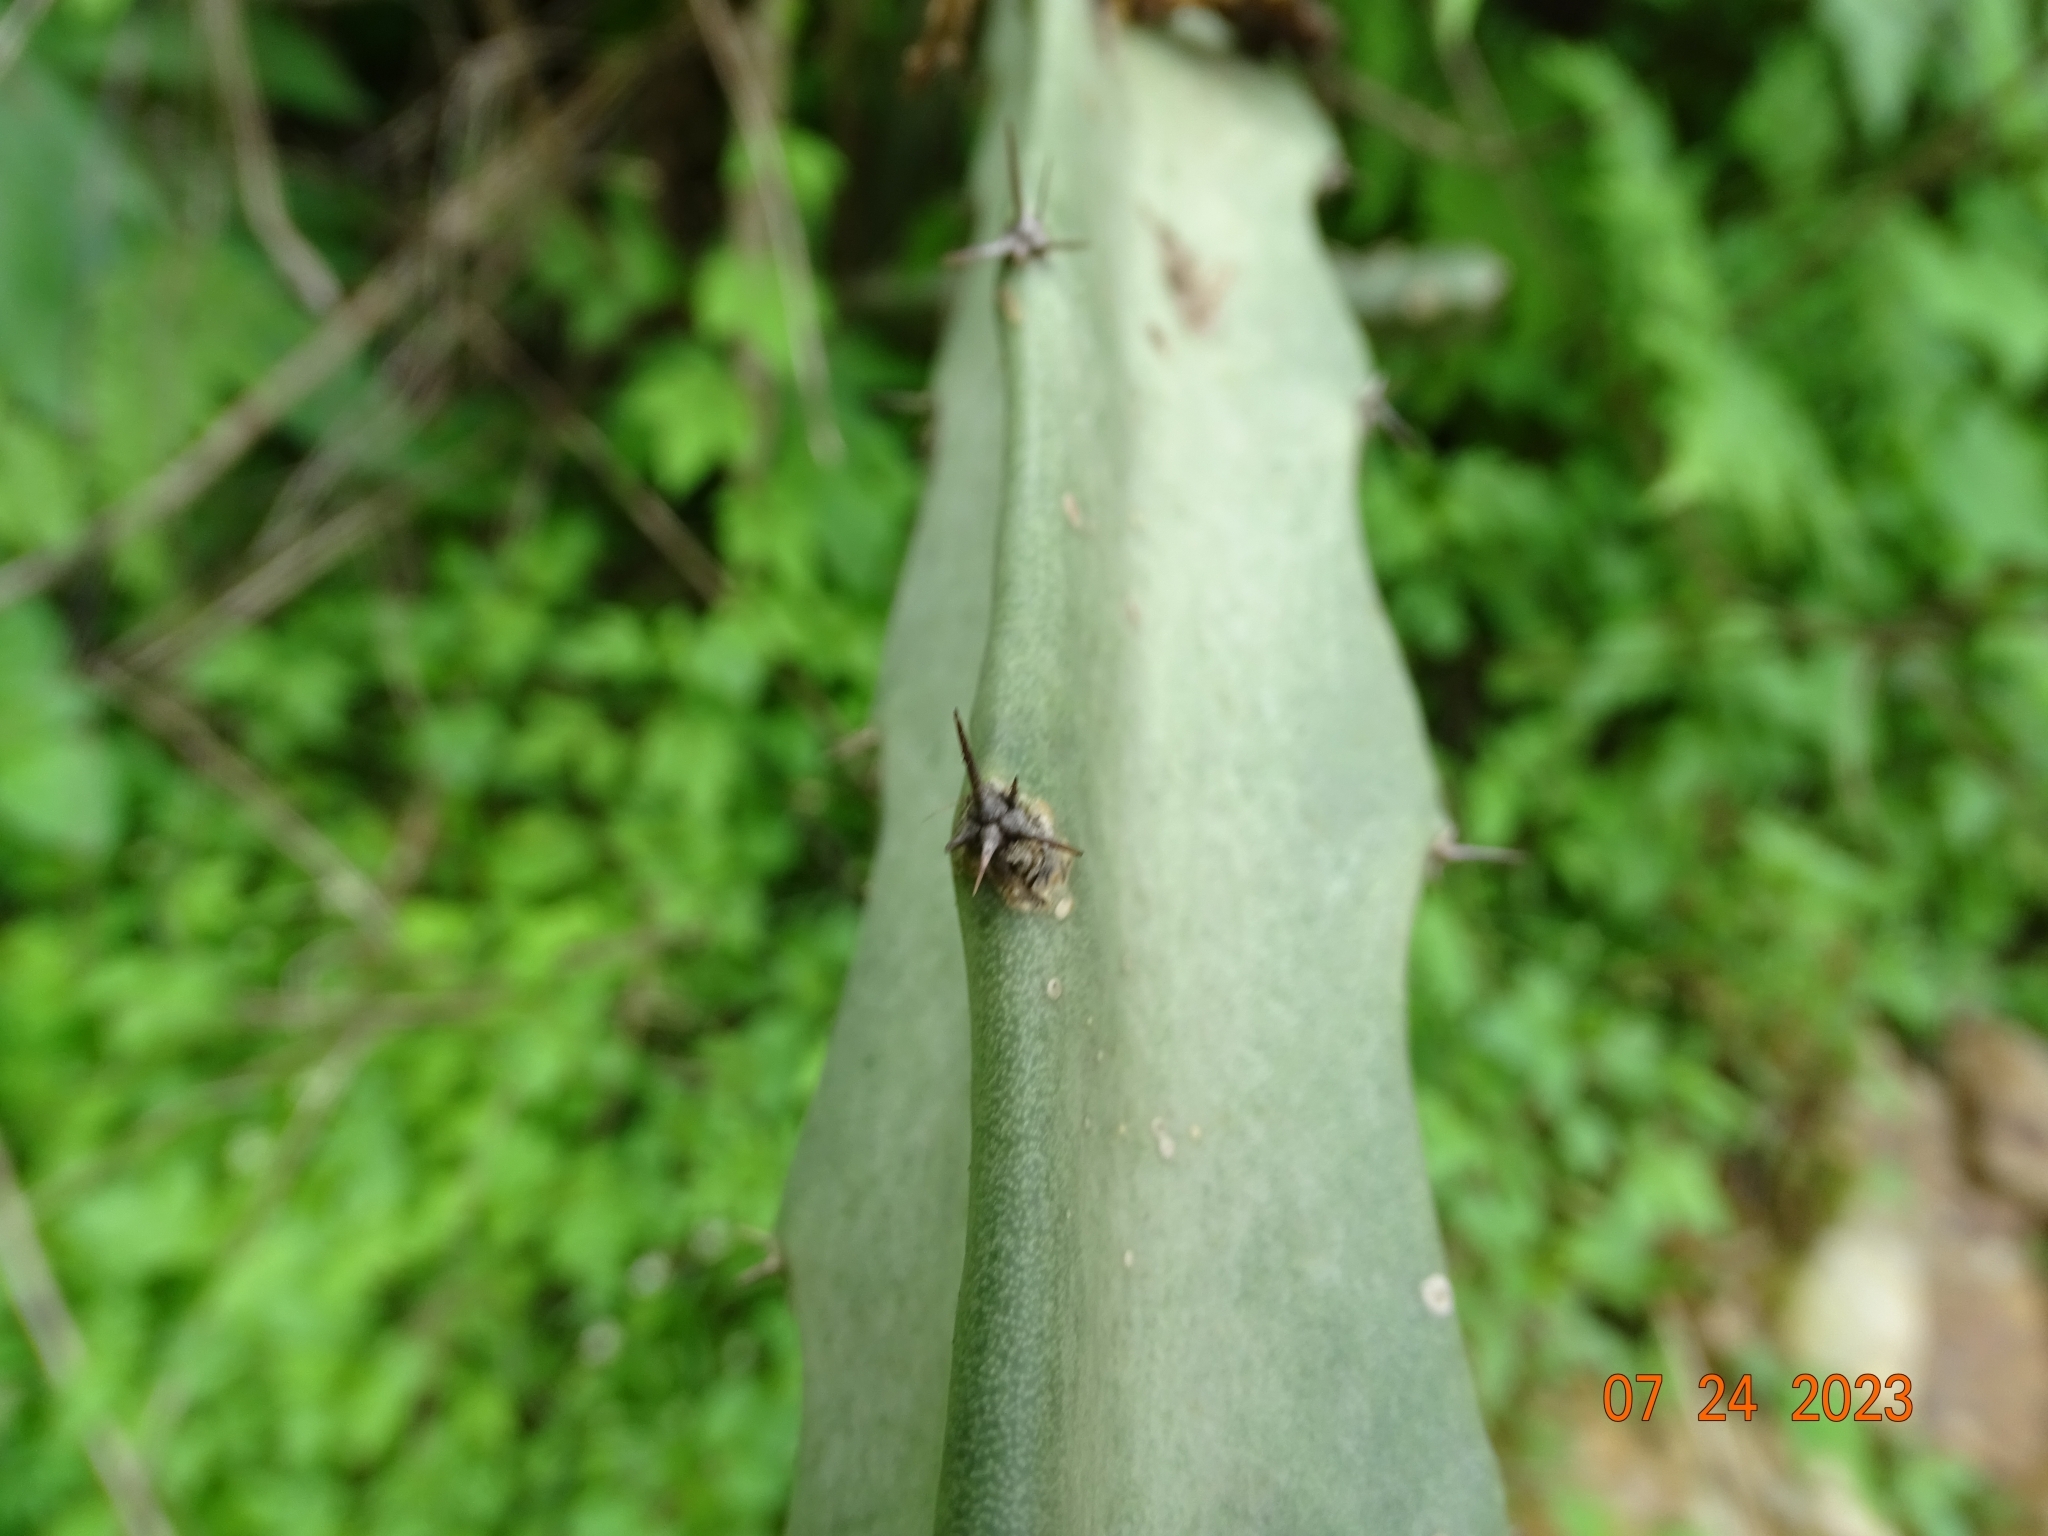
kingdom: Plantae
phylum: Tracheophyta
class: Magnoliopsida
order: Caryophyllales
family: Cactaceae
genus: Selenicereus
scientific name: Selenicereus ocamponis
